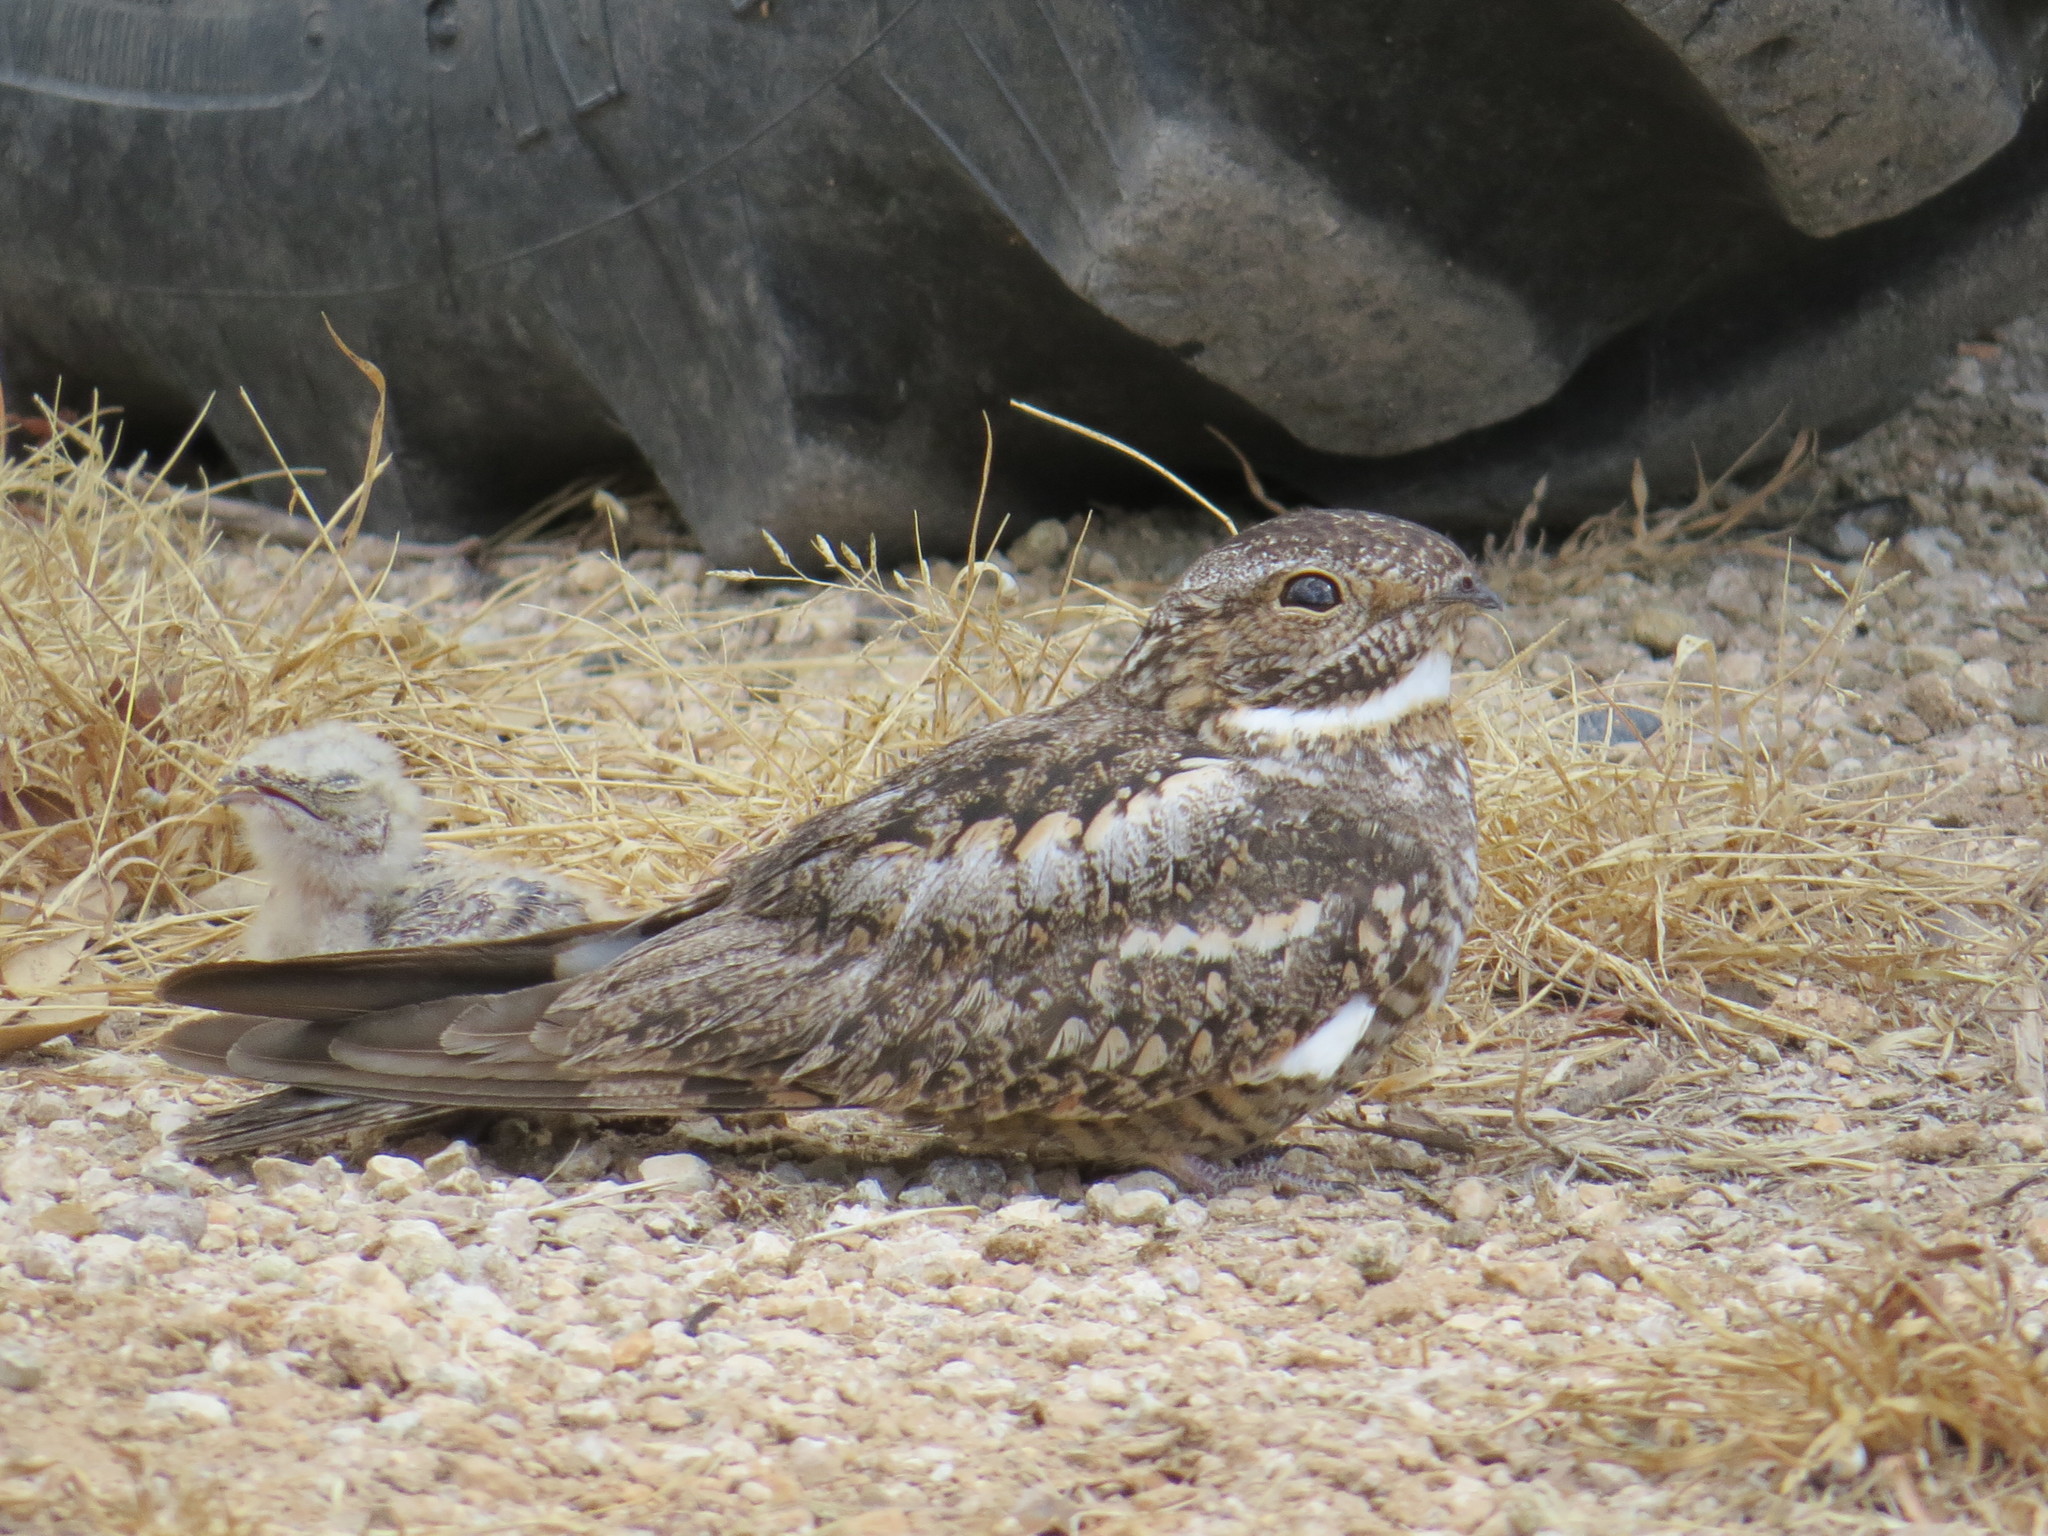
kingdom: Animalia
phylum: Chordata
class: Aves
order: Caprimulgiformes
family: Caprimulgidae
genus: Chordeiles
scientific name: Chordeiles acutipennis
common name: Lesser nighthawk
